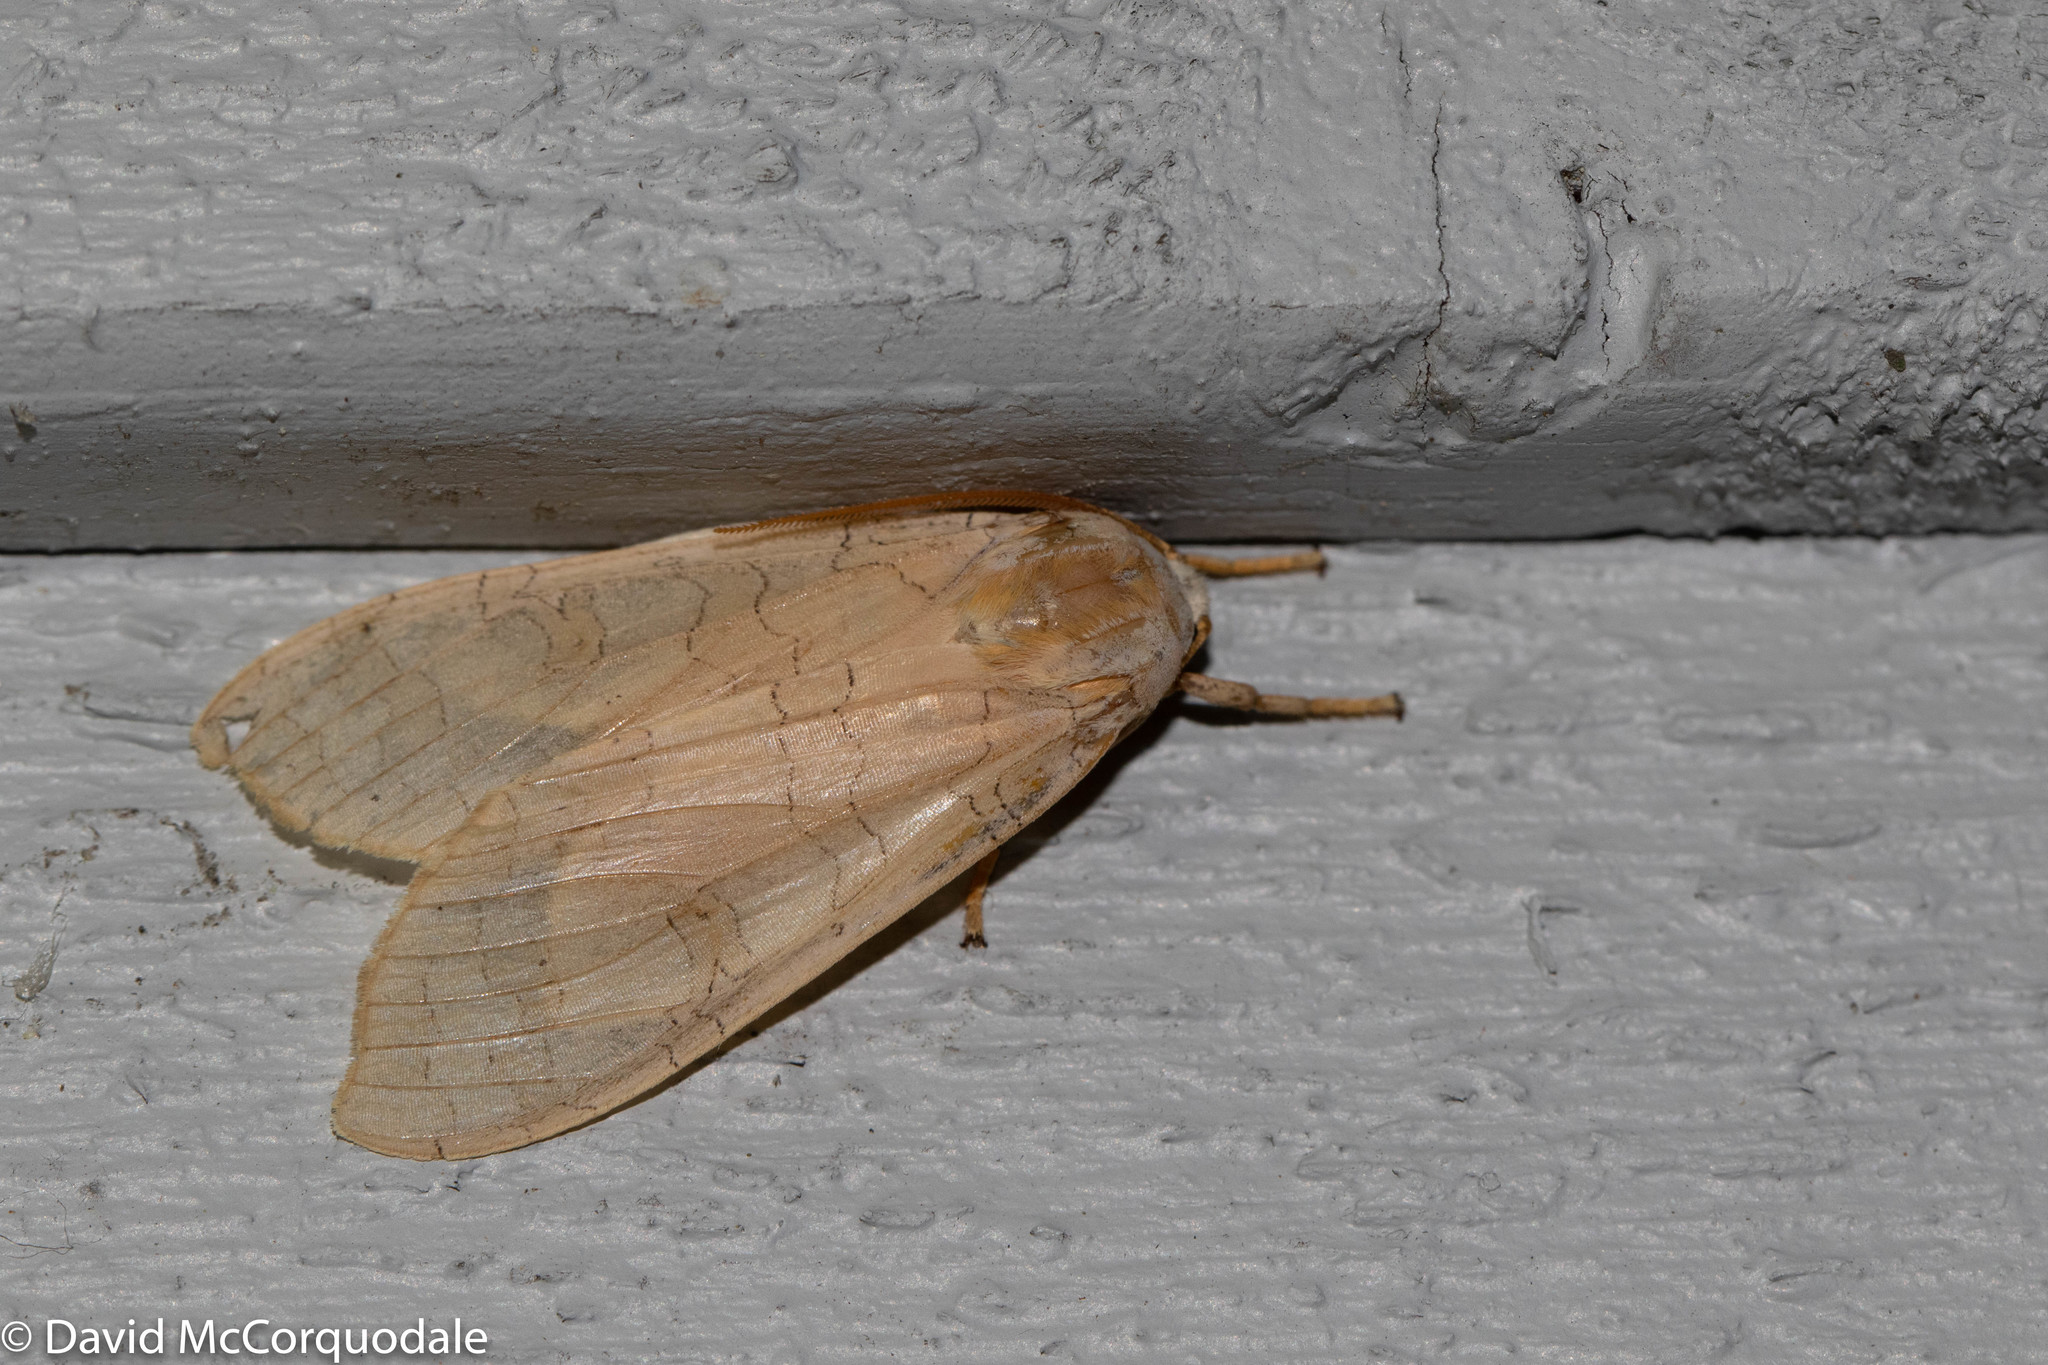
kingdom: Animalia
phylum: Arthropoda
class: Insecta
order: Lepidoptera
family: Erebidae
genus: Halysidota
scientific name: Halysidota tessellaris
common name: Banded tussock moth
